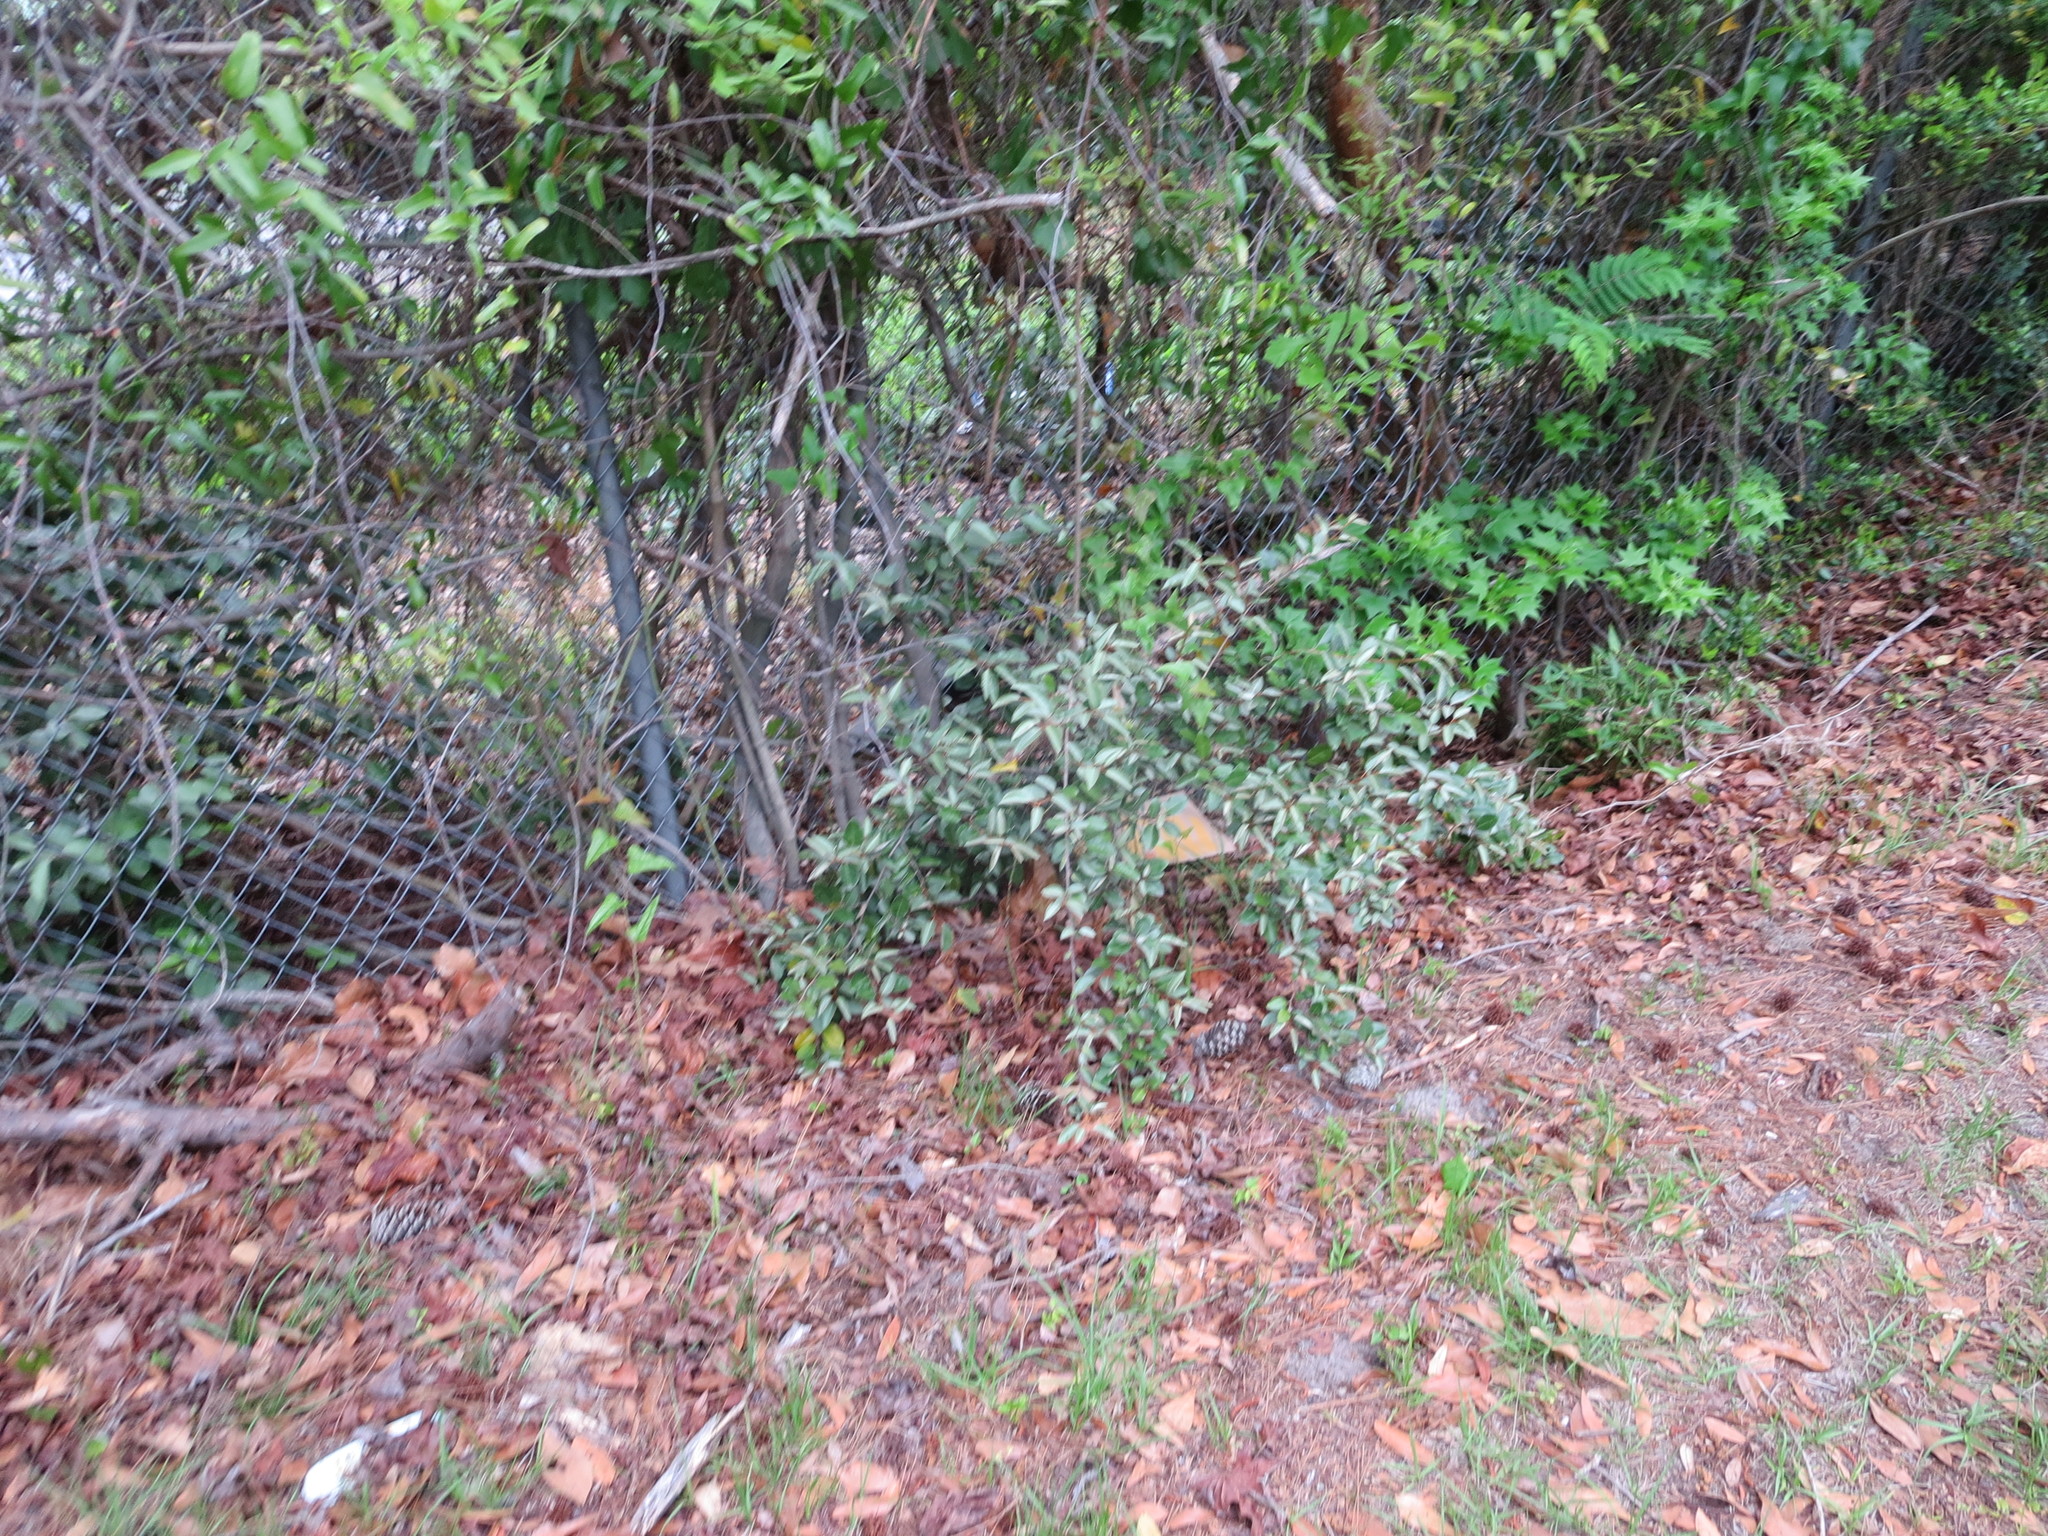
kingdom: Plantae
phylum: Tracheophyta
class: Magnoliopsida
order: Rosales
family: Elaeagnaceae
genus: Elaeagnus
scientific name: Elaeagnus pungens
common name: Spiny oleaster
